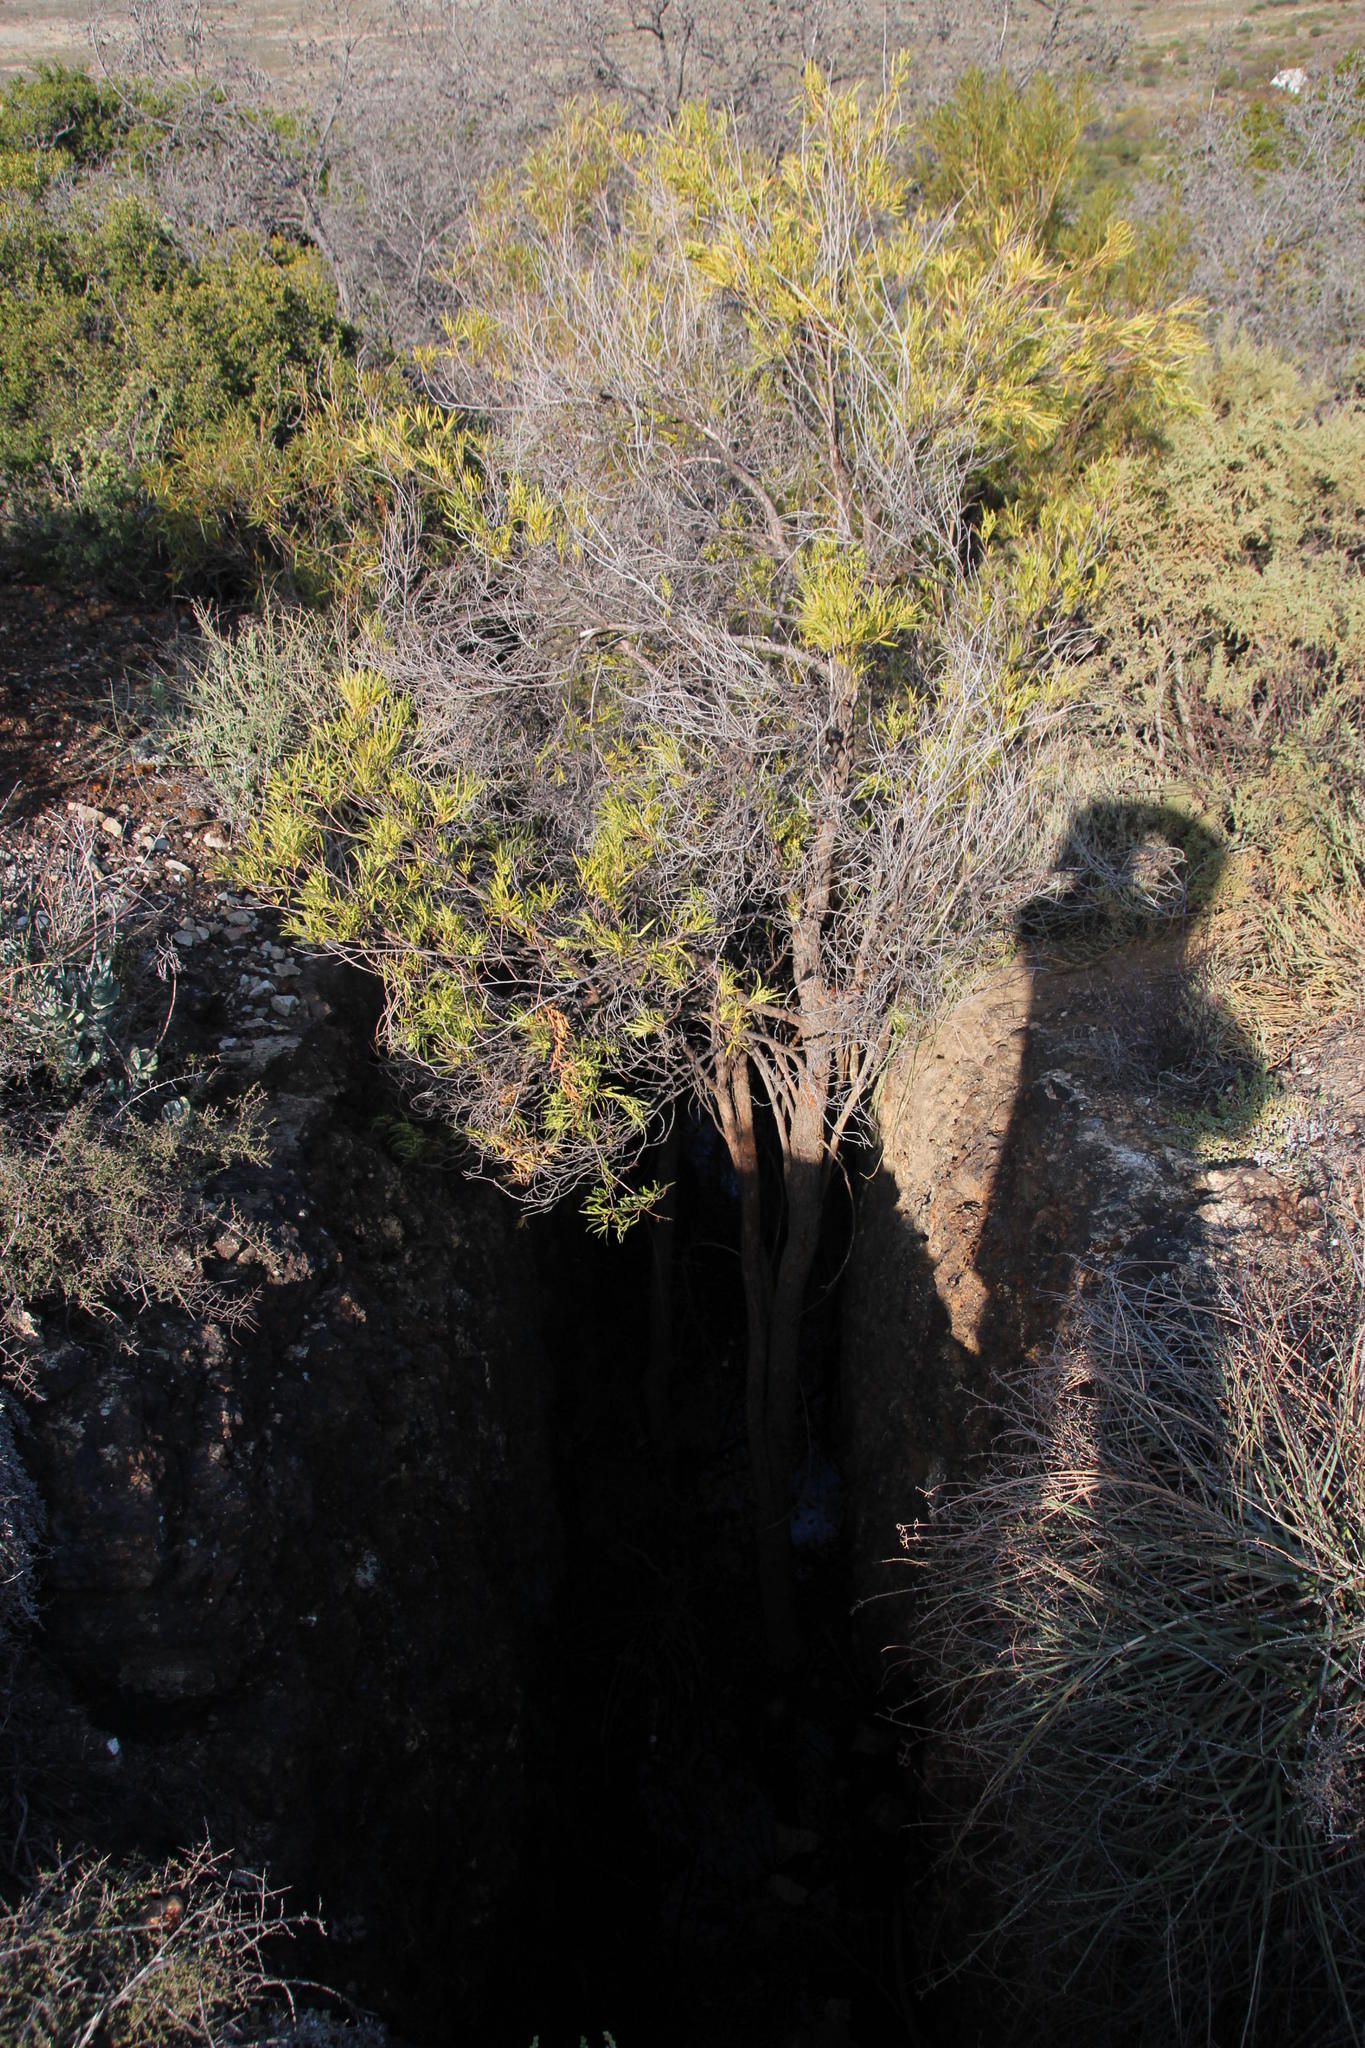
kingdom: Plantae
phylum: Tracheophyta
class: Magnoliopsida
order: Sapindales
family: Anacardiaceae
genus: Searsia
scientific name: Searsia lancea
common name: Cashew
